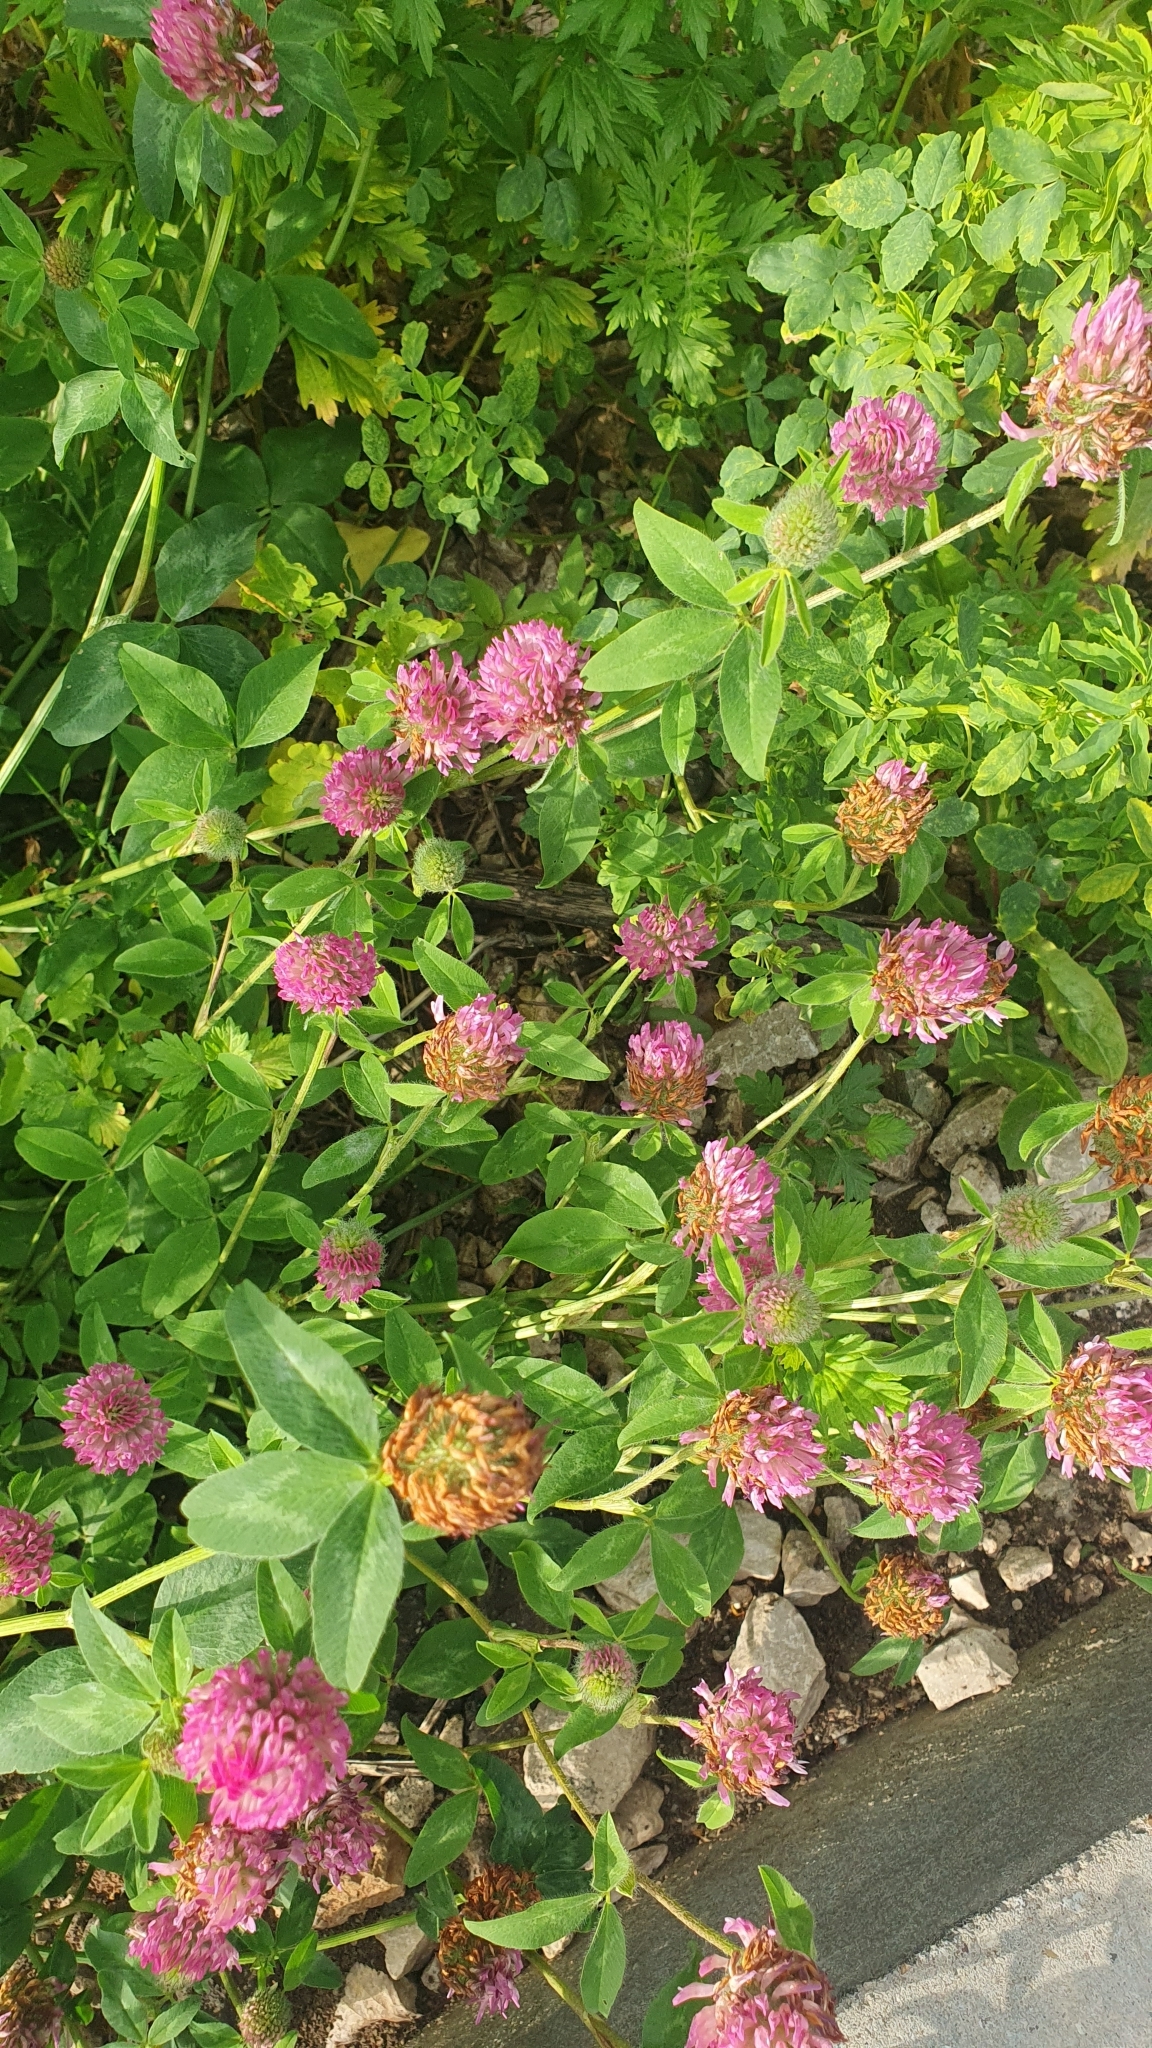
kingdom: Plantae
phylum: Tracheophyta
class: Magnoliopsida
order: Fabales
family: Fabaceae
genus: Trifolium
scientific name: Trifolium pratense
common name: Red clover
